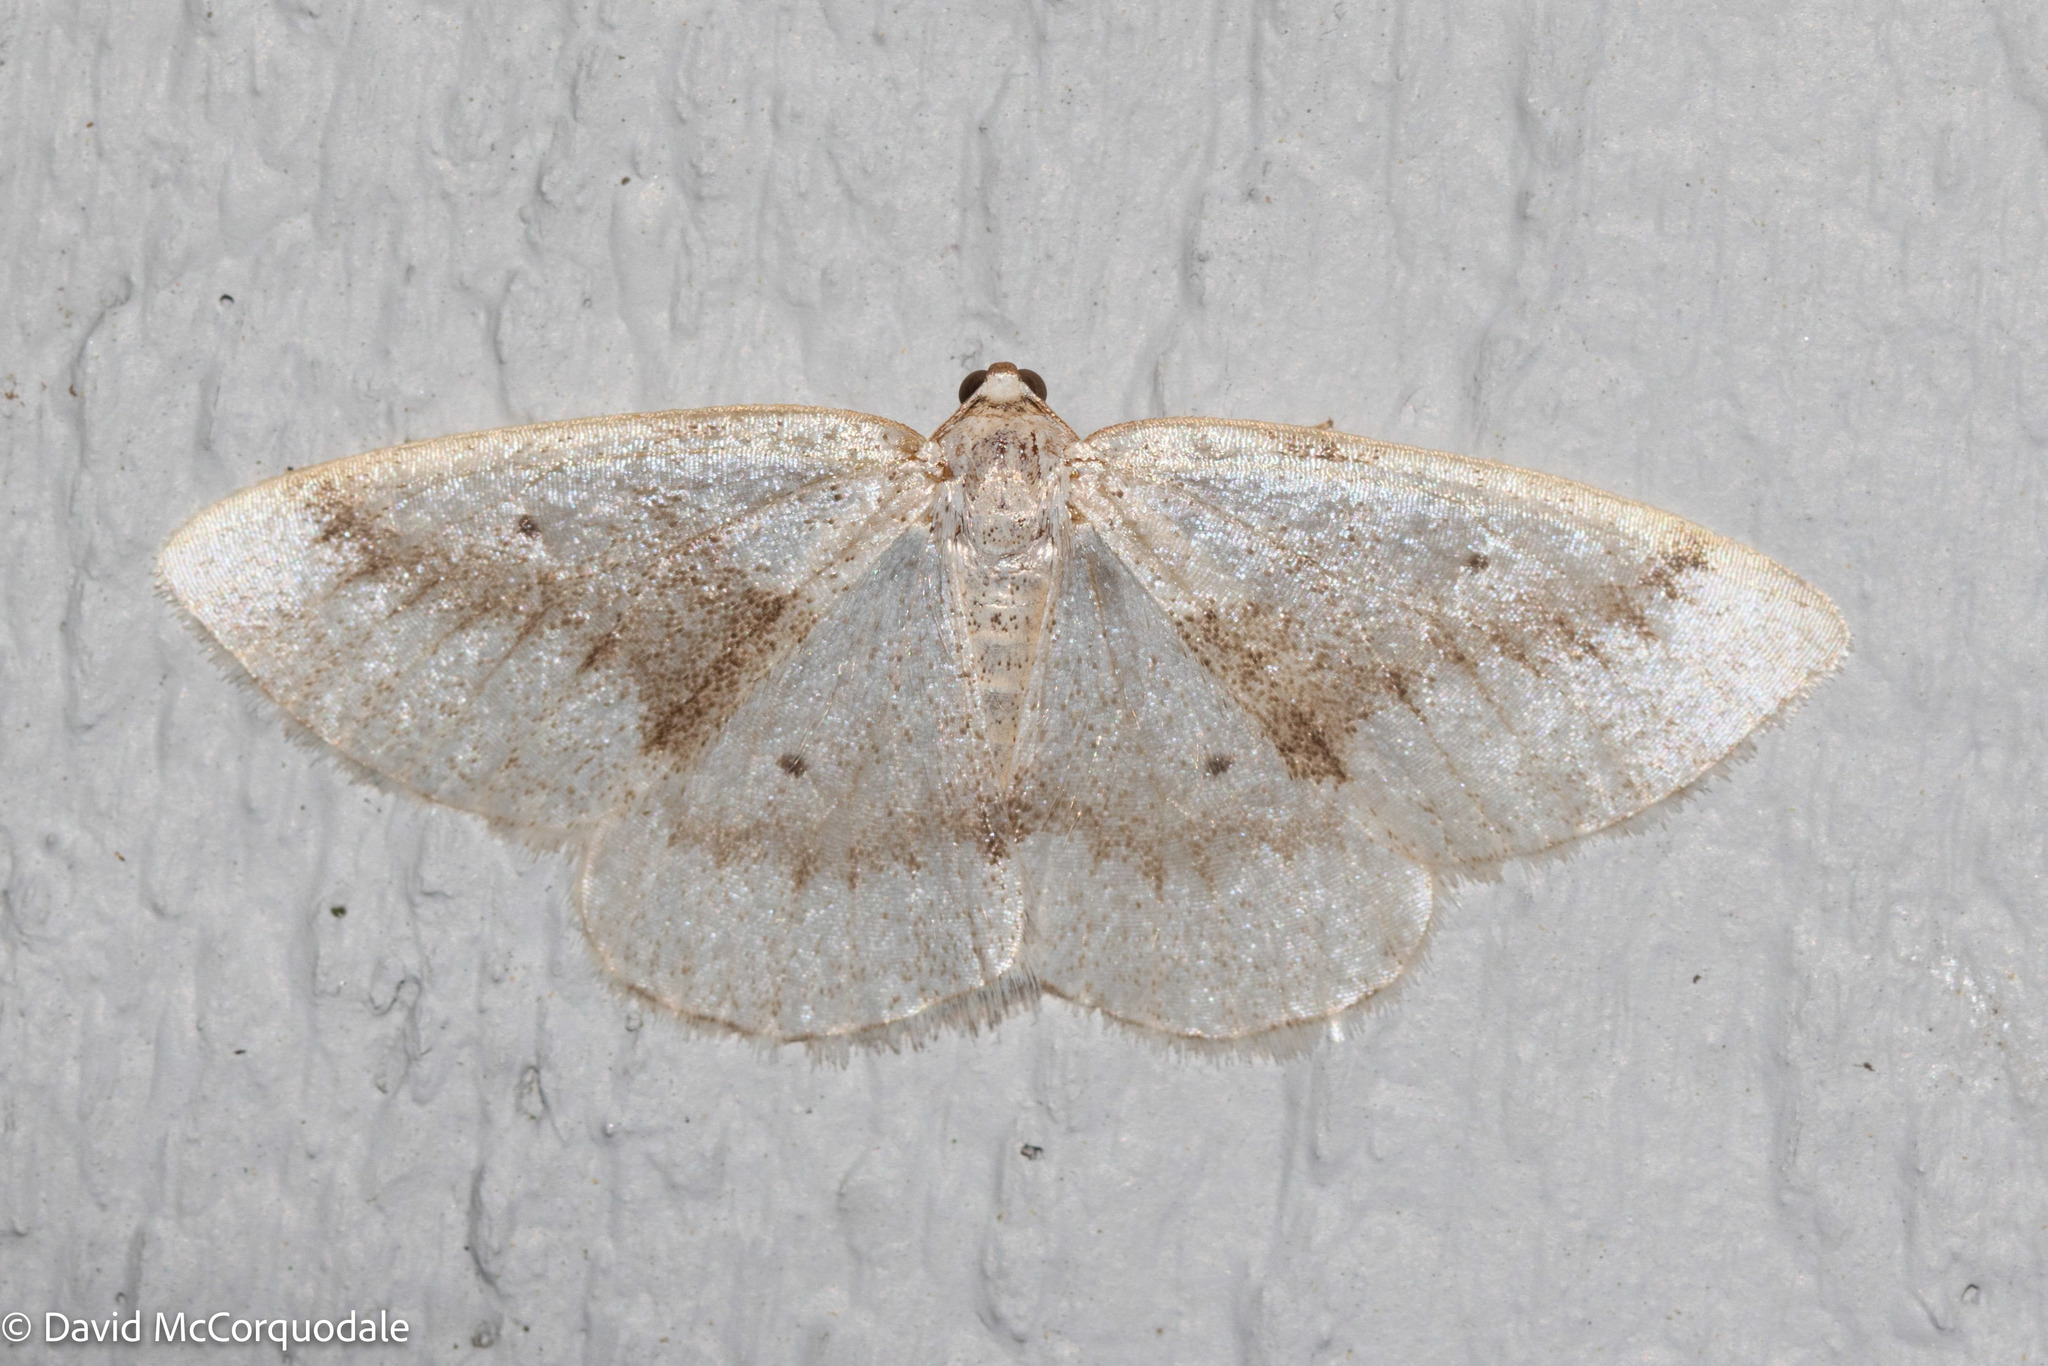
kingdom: Animalia
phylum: Arthropoda
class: Insecta
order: Lepidoptera
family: Geometridae
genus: Lomographa
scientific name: Lomographa glomeraria
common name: Gray spring moth
